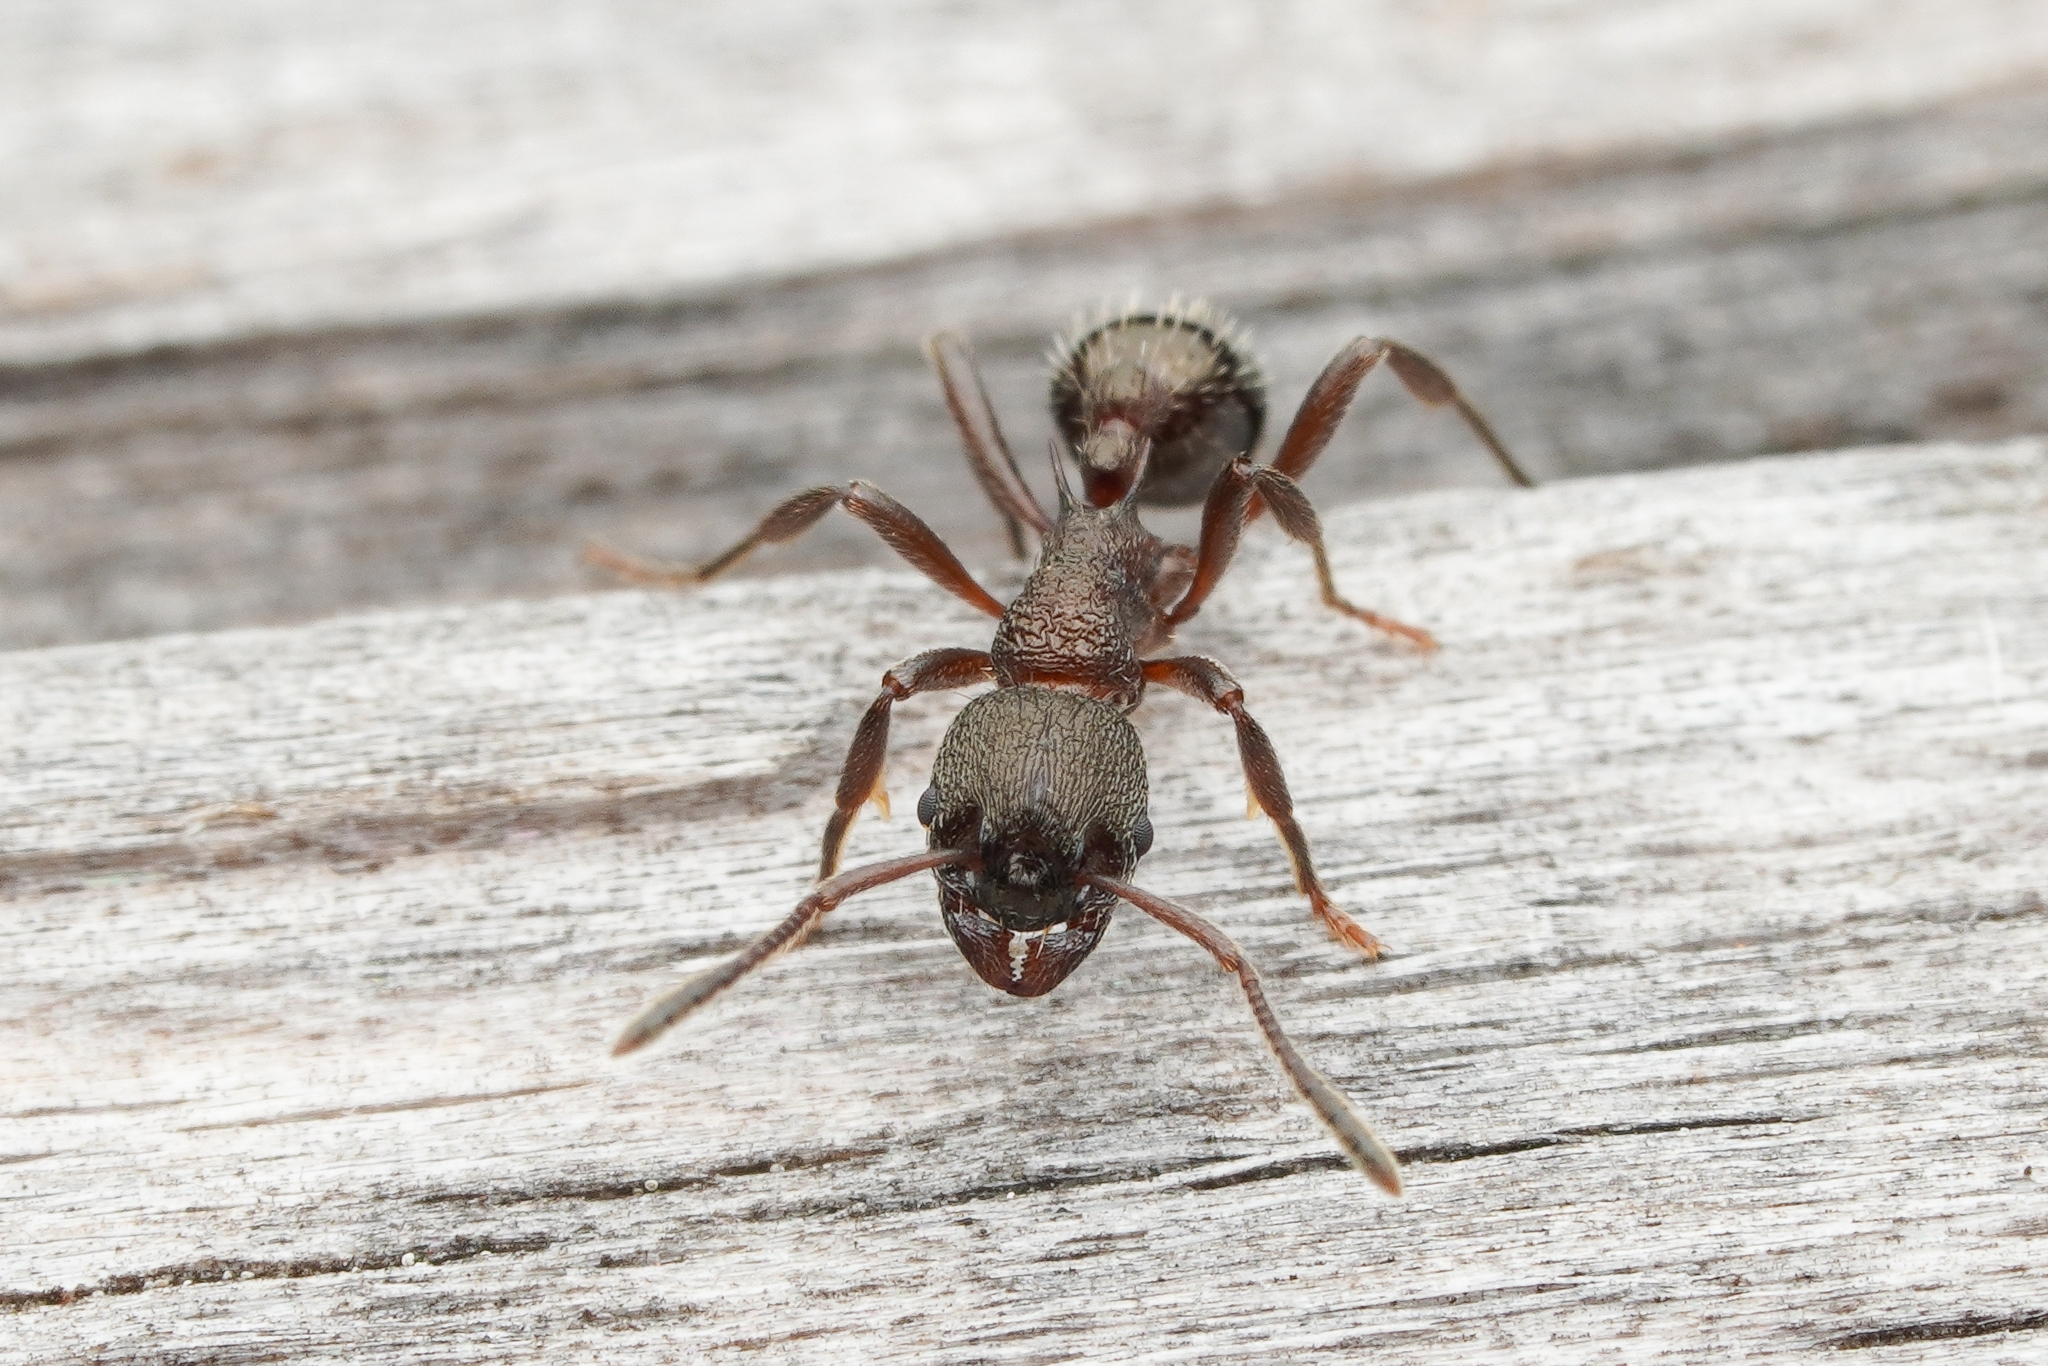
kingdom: Animalia
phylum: Arthropoda
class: Insecta
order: Hymenoptera
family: Formicidae
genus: Myrmica
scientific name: Myrmica kurokii
